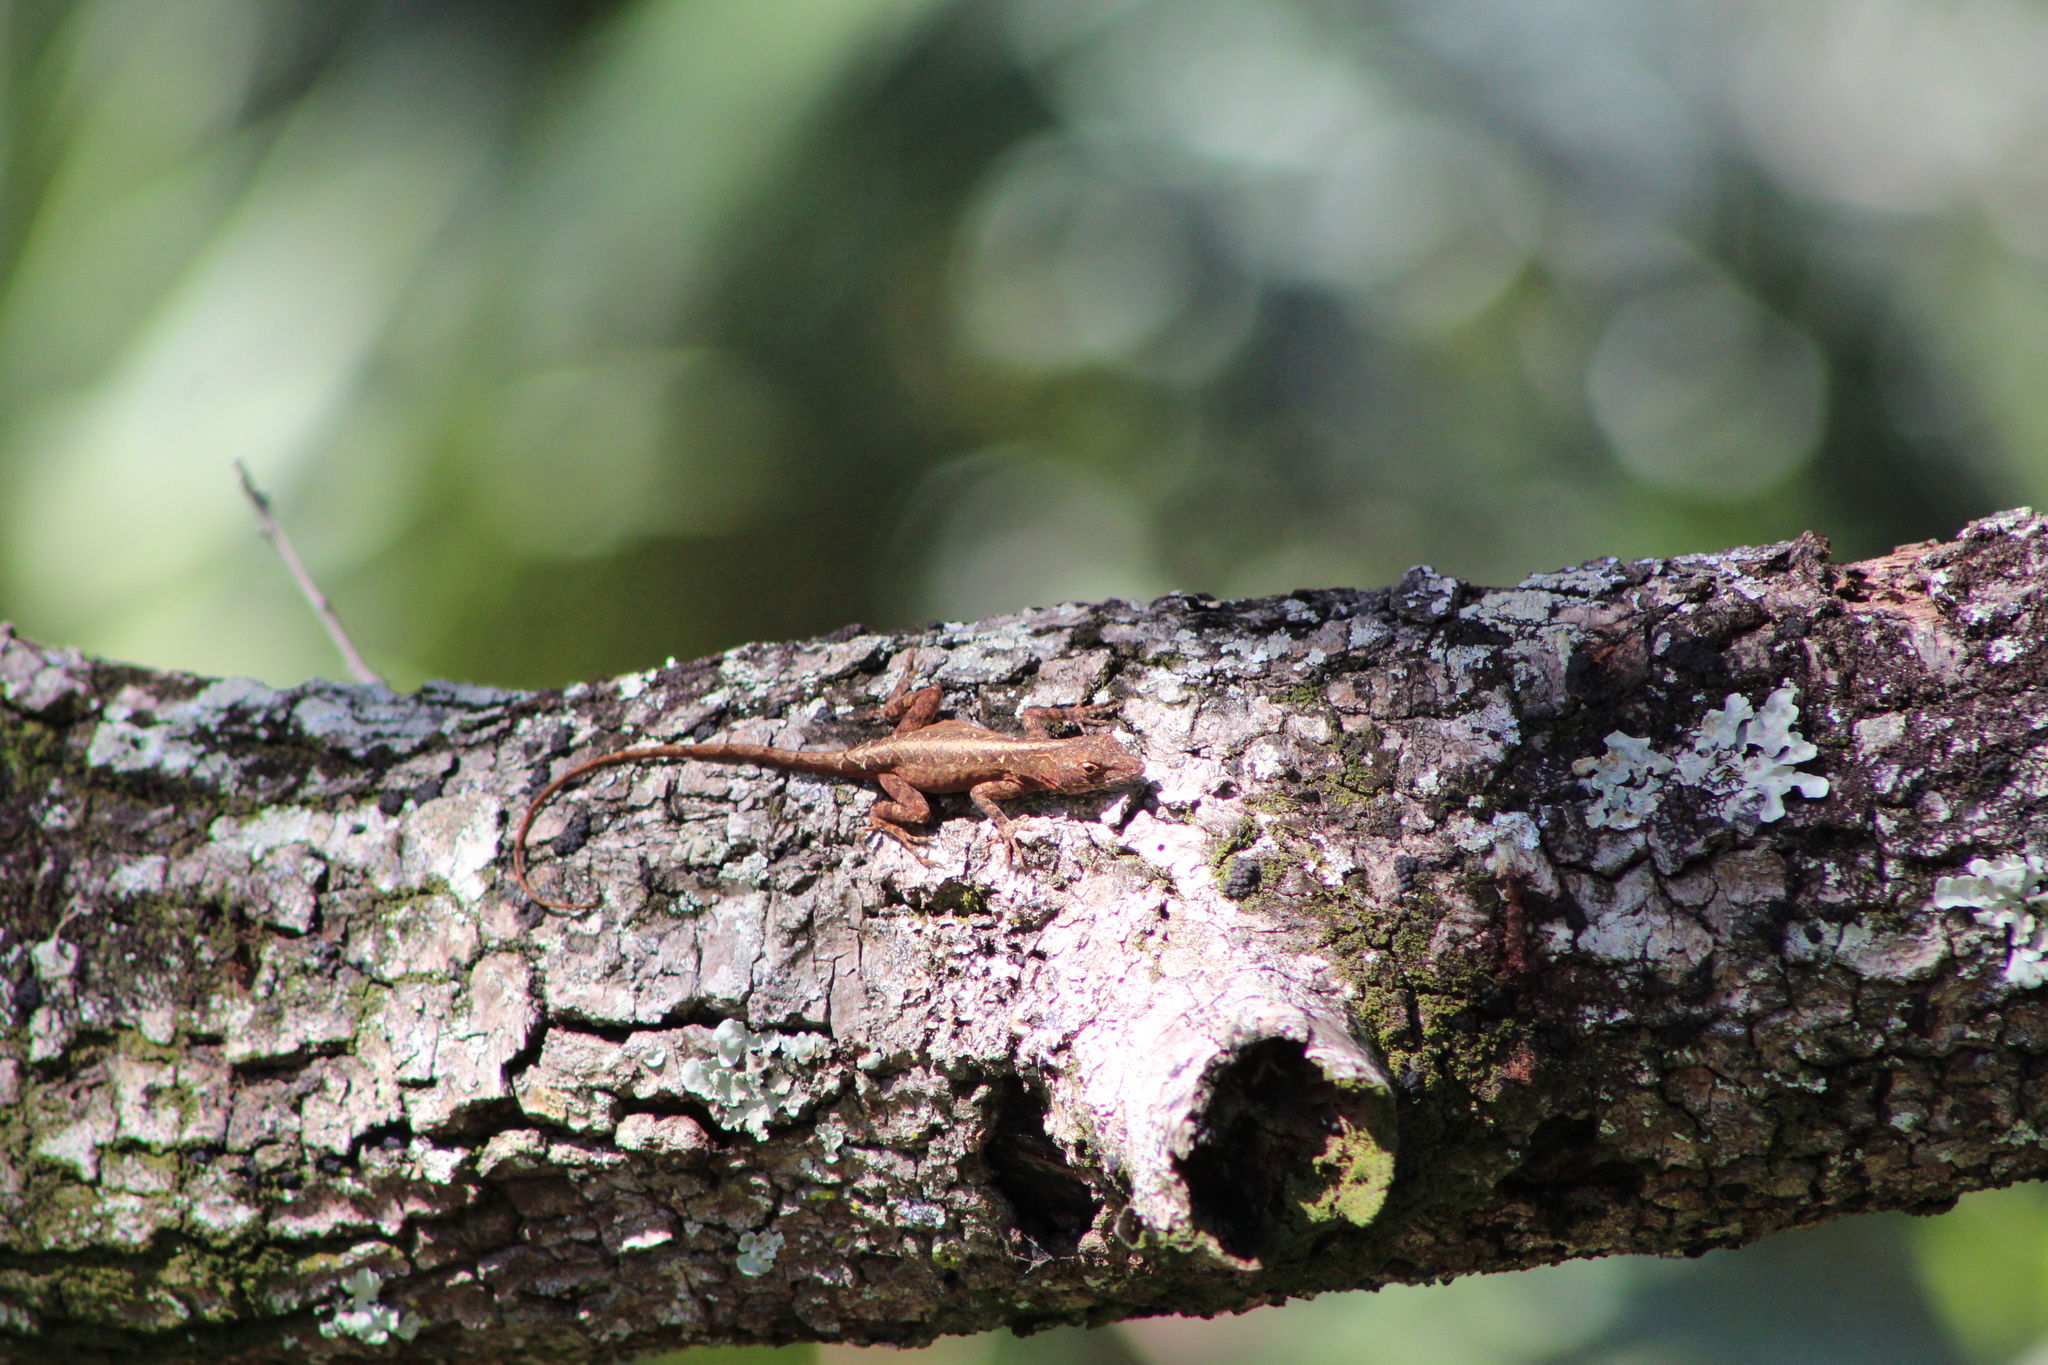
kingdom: Animalia
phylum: Chordata
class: Squamata
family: Dactyloidae
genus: Anolis
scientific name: Anolis sagrei
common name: Brown anole
